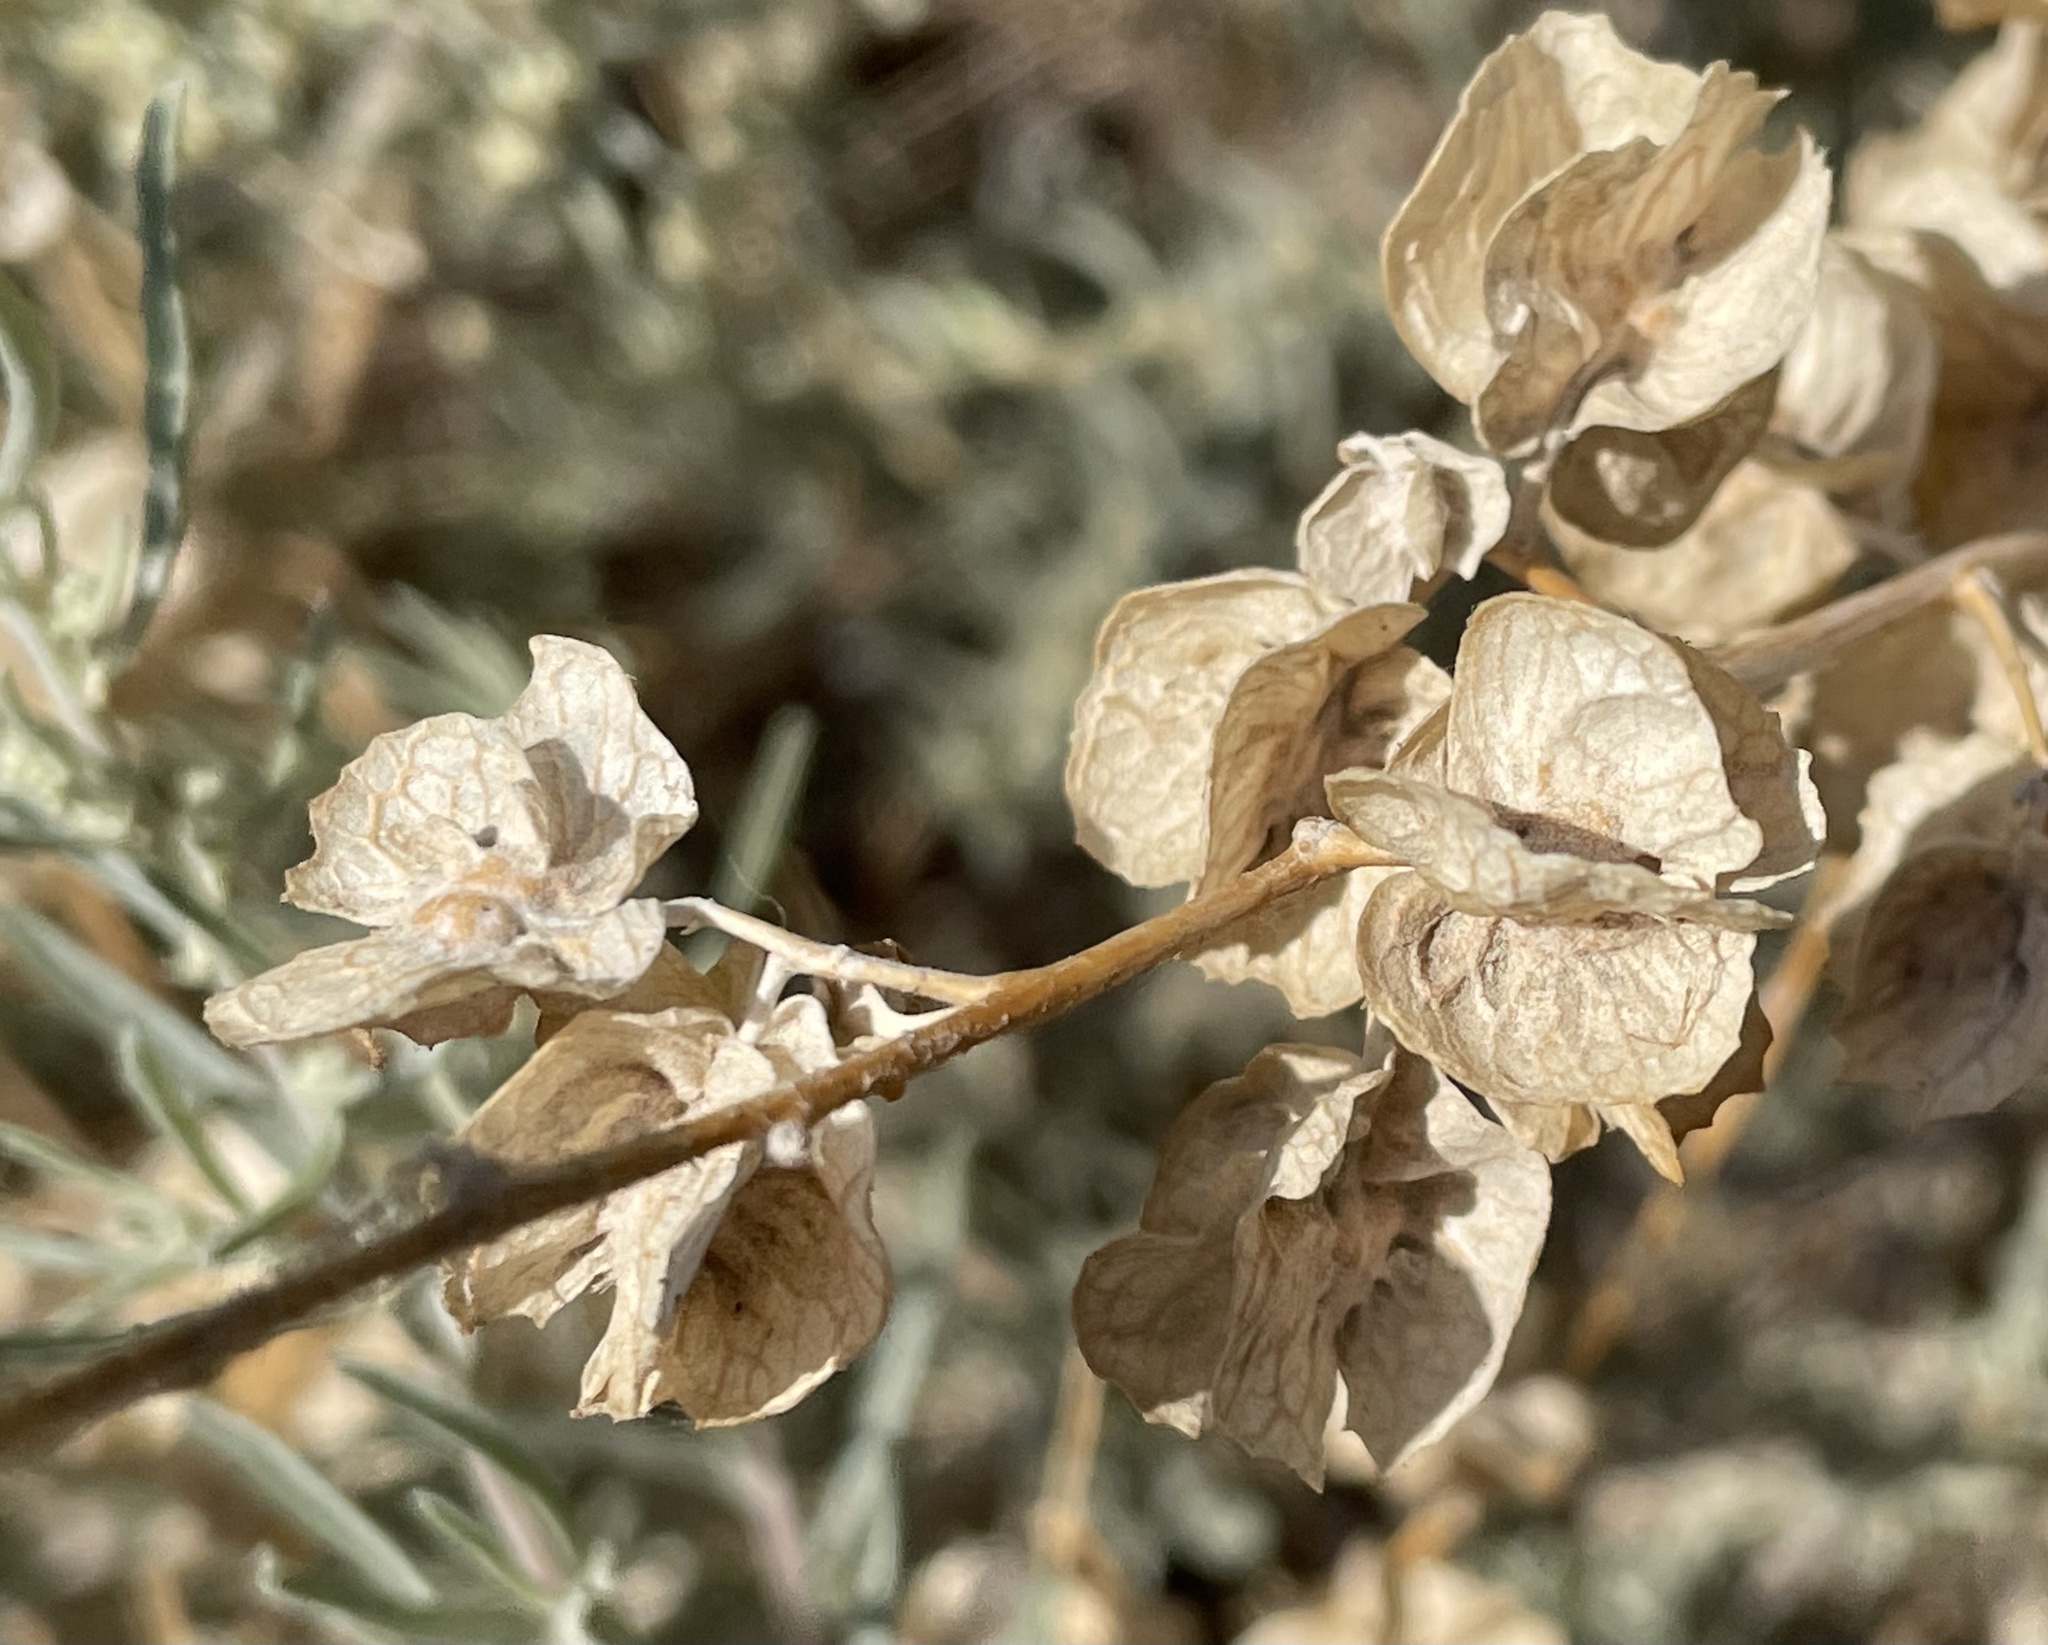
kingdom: Plantae
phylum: Tracheophyta
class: Magnoliopsida
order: Caryophyllales
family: Amaranthaceae
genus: Atriplex
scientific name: Atriplex canescens
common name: Four-wing saltbush
